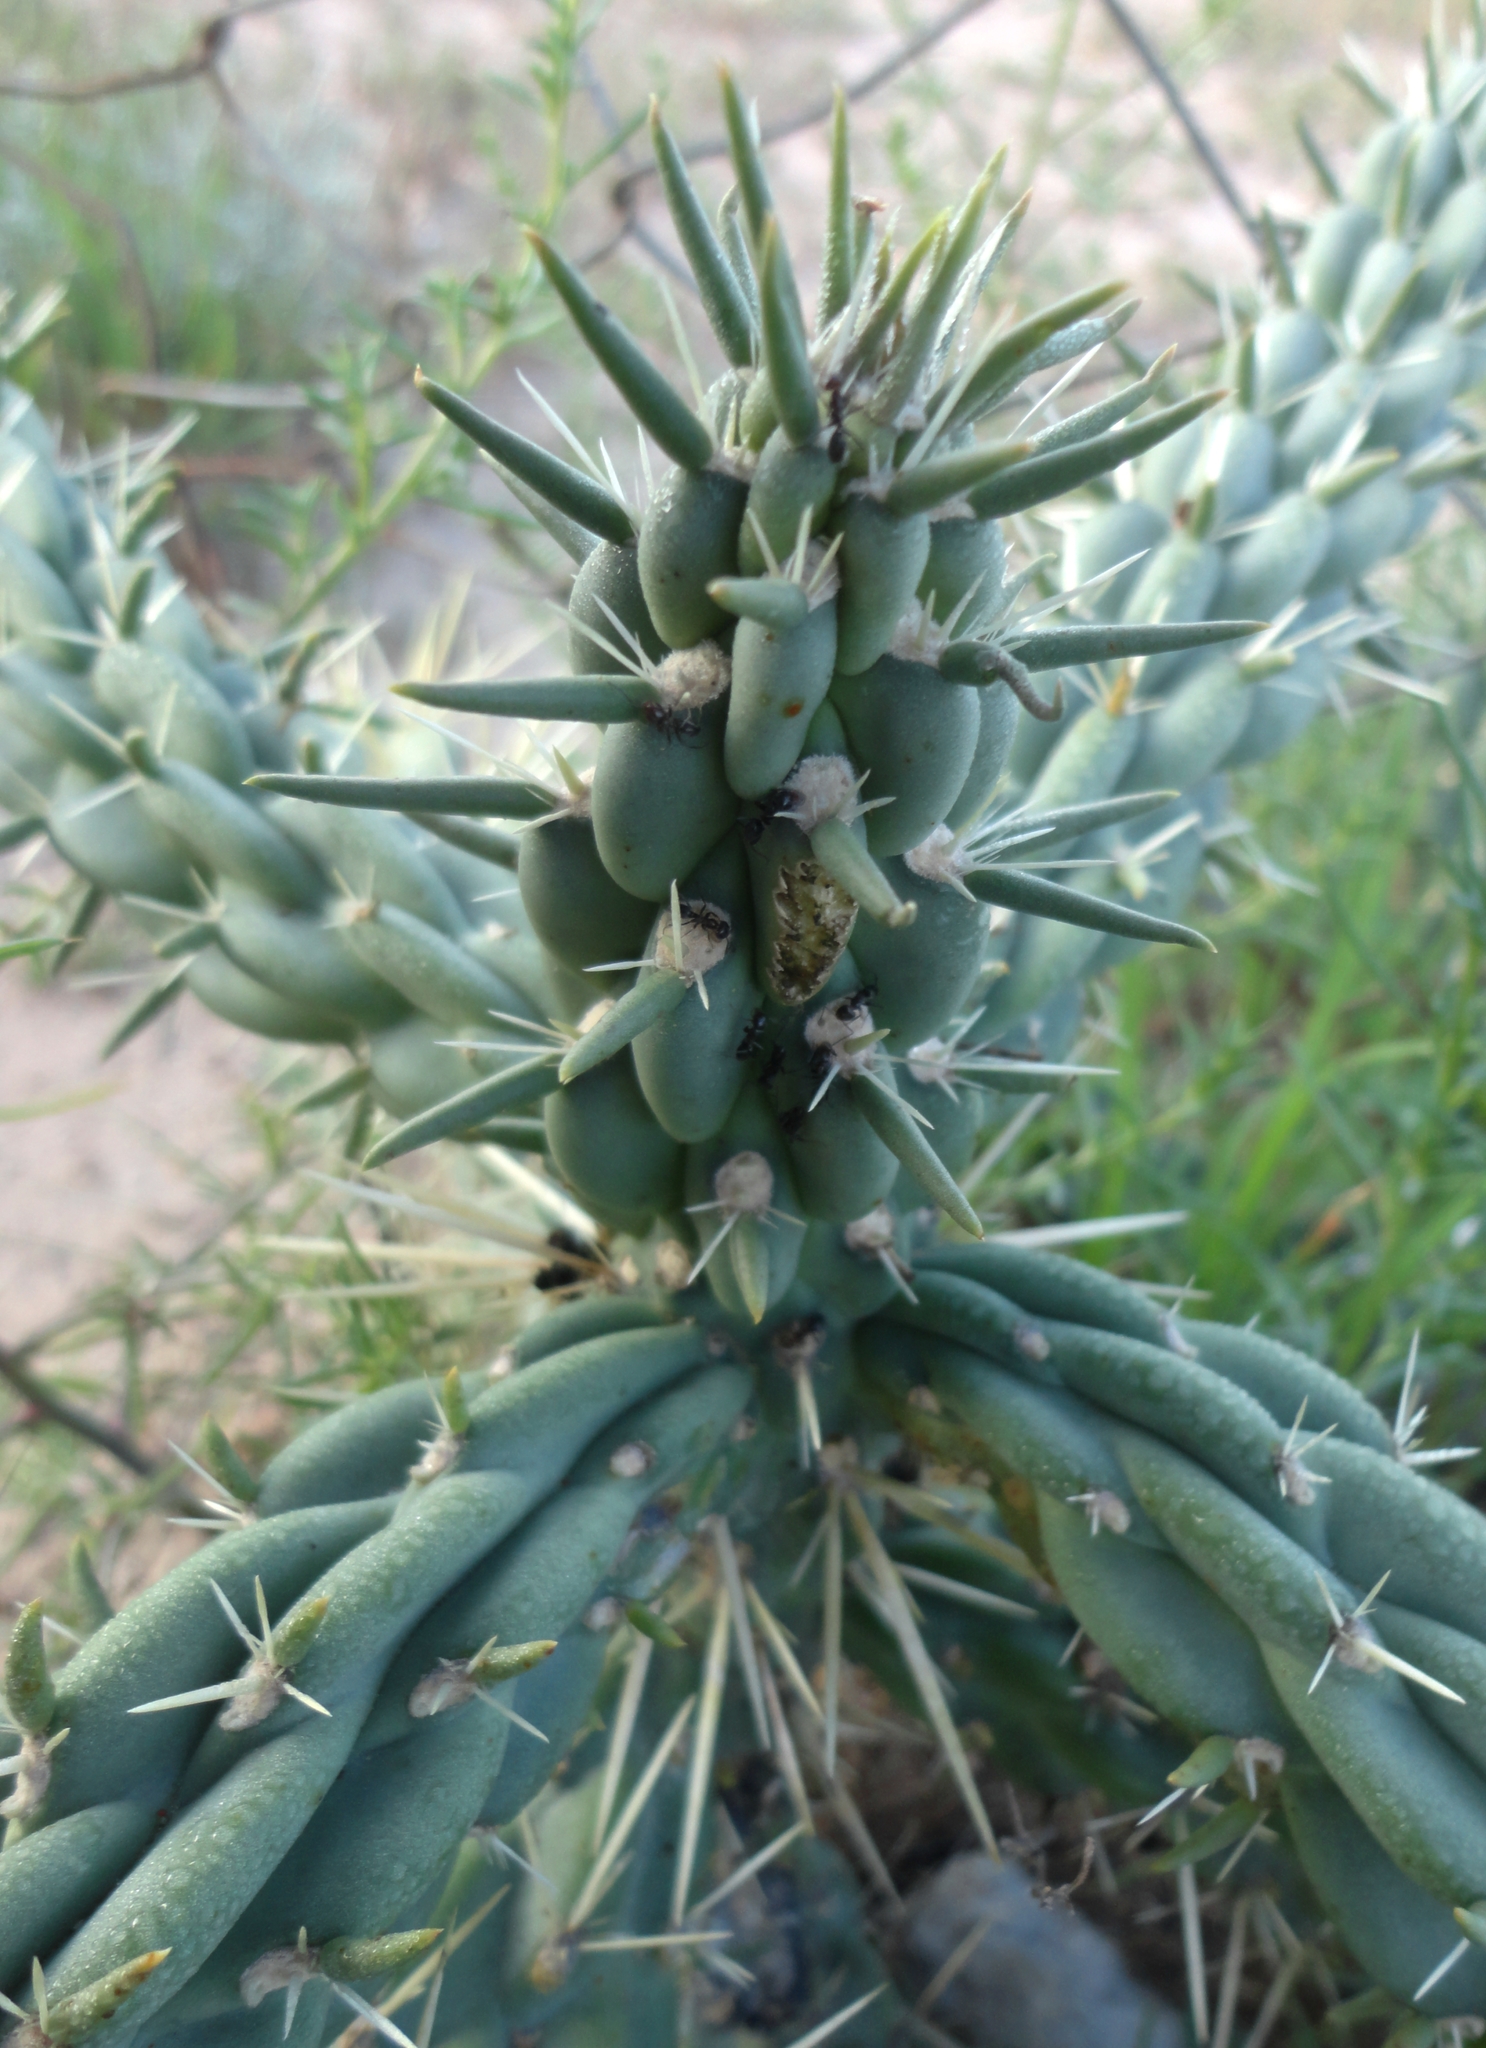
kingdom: Plantae
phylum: Tracheophyta
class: Magnoliopsida
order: Caryophyllales
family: Cactaceae
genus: Cylindropuntia
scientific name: Cylindropuntia imbricata
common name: Candelabrum cactus
